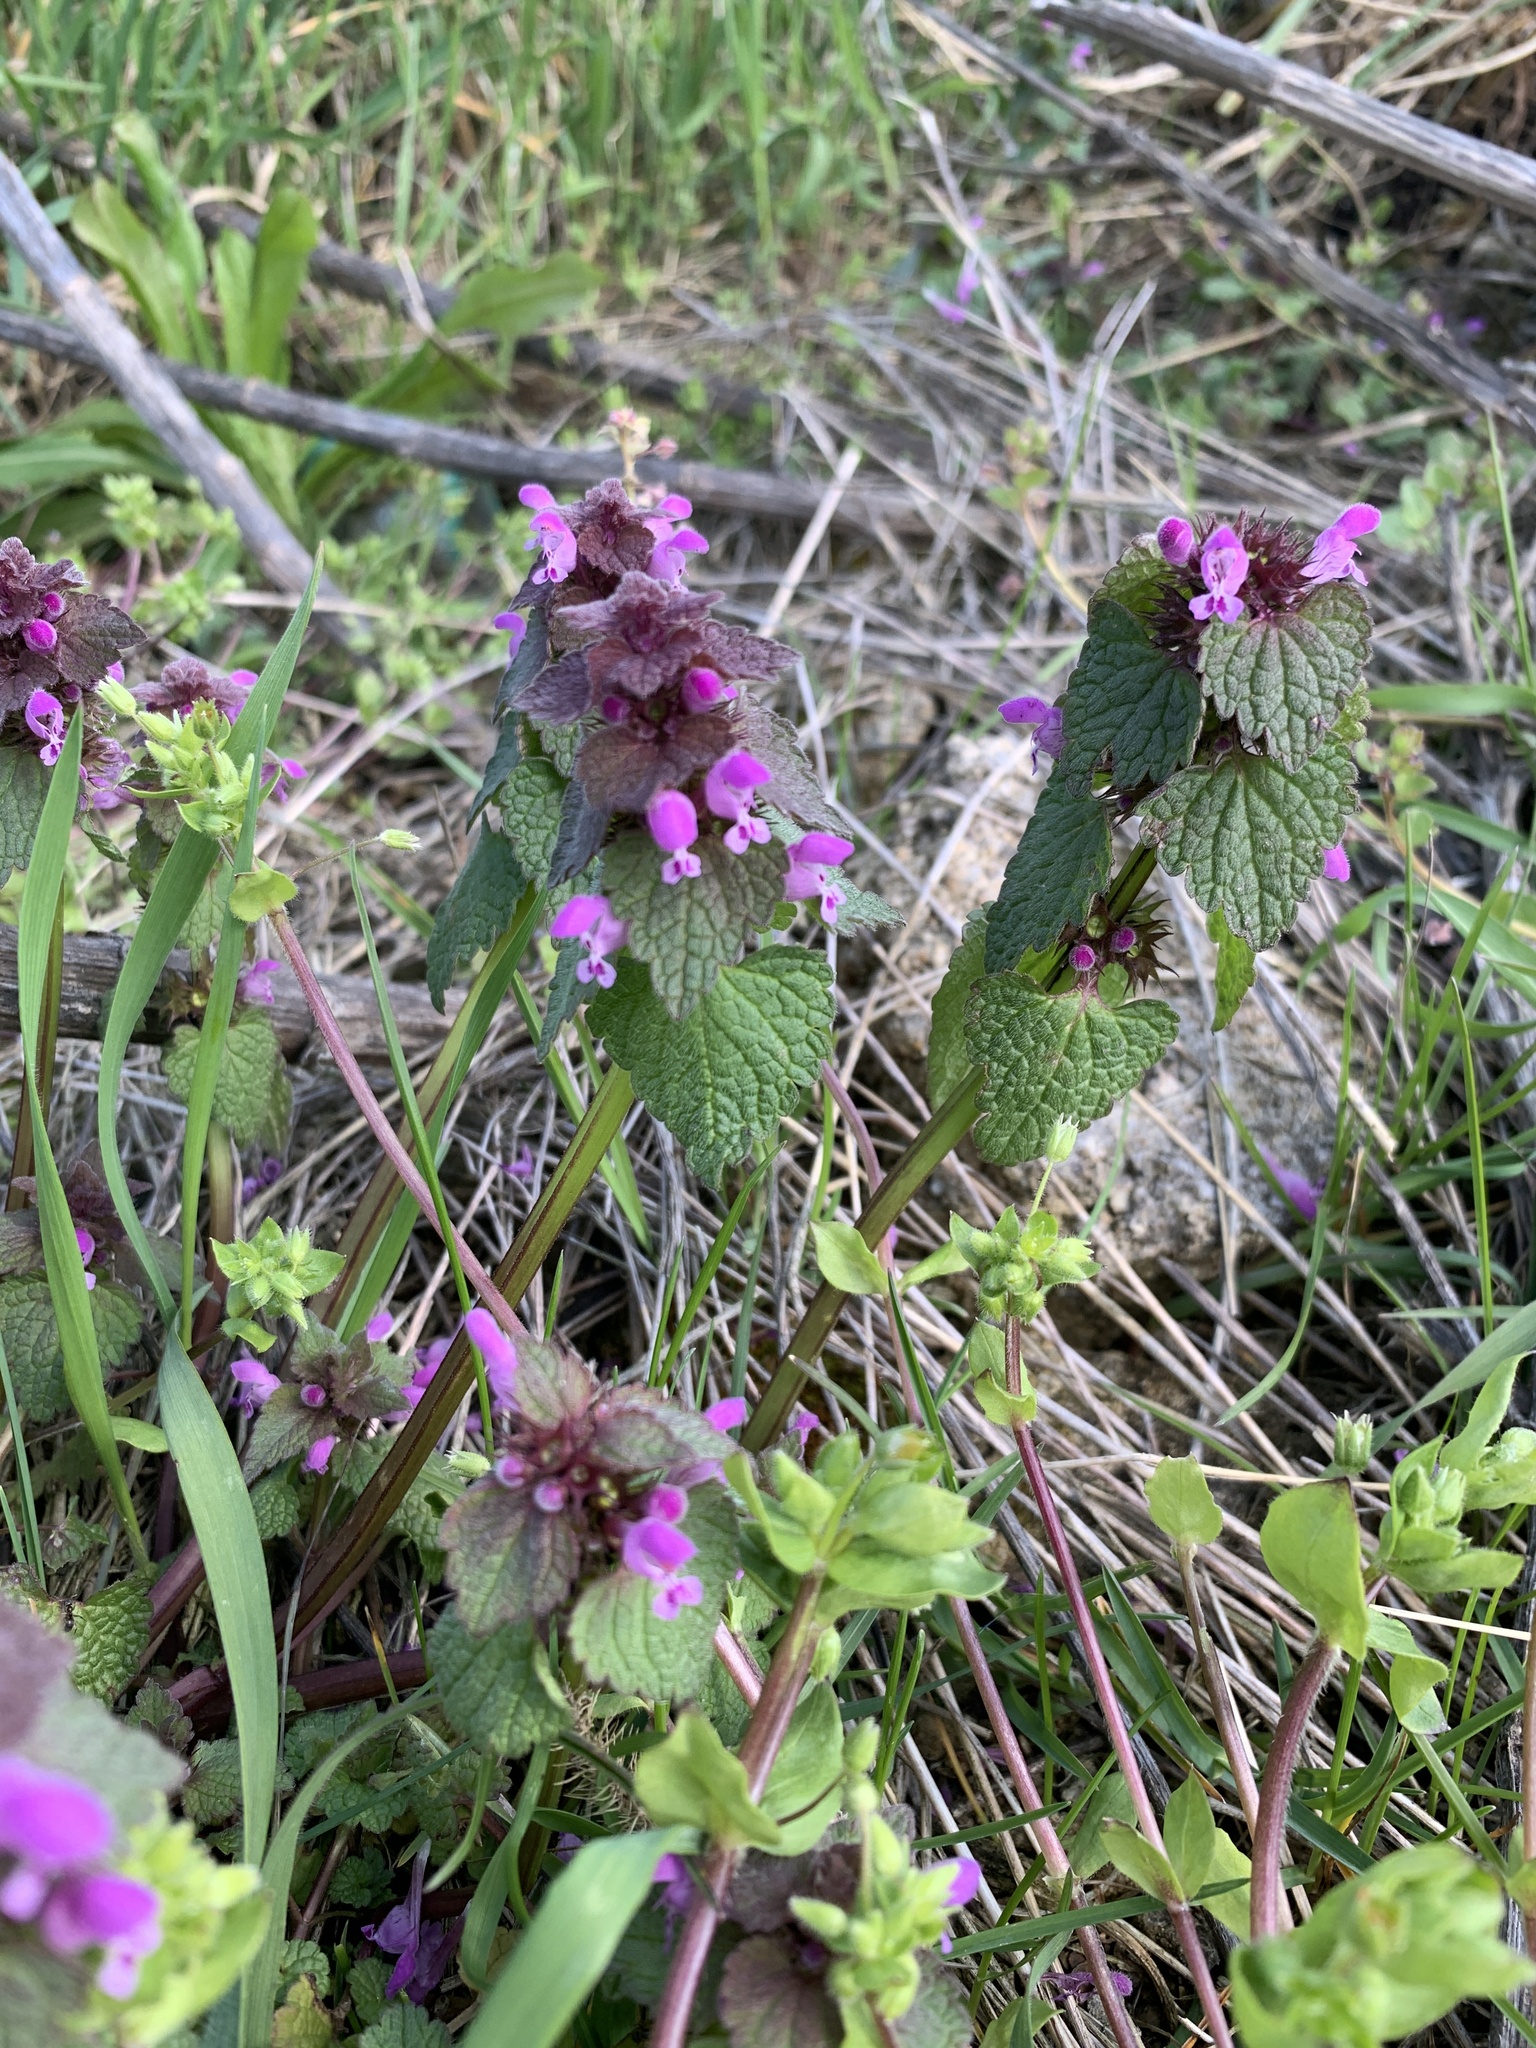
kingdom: Plantae
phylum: Tracheophyta
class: Magnoliopsida
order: Lamiales
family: Lamiaceae
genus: Lamium
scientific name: Lamium purpureum
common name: Red dead-nettle
